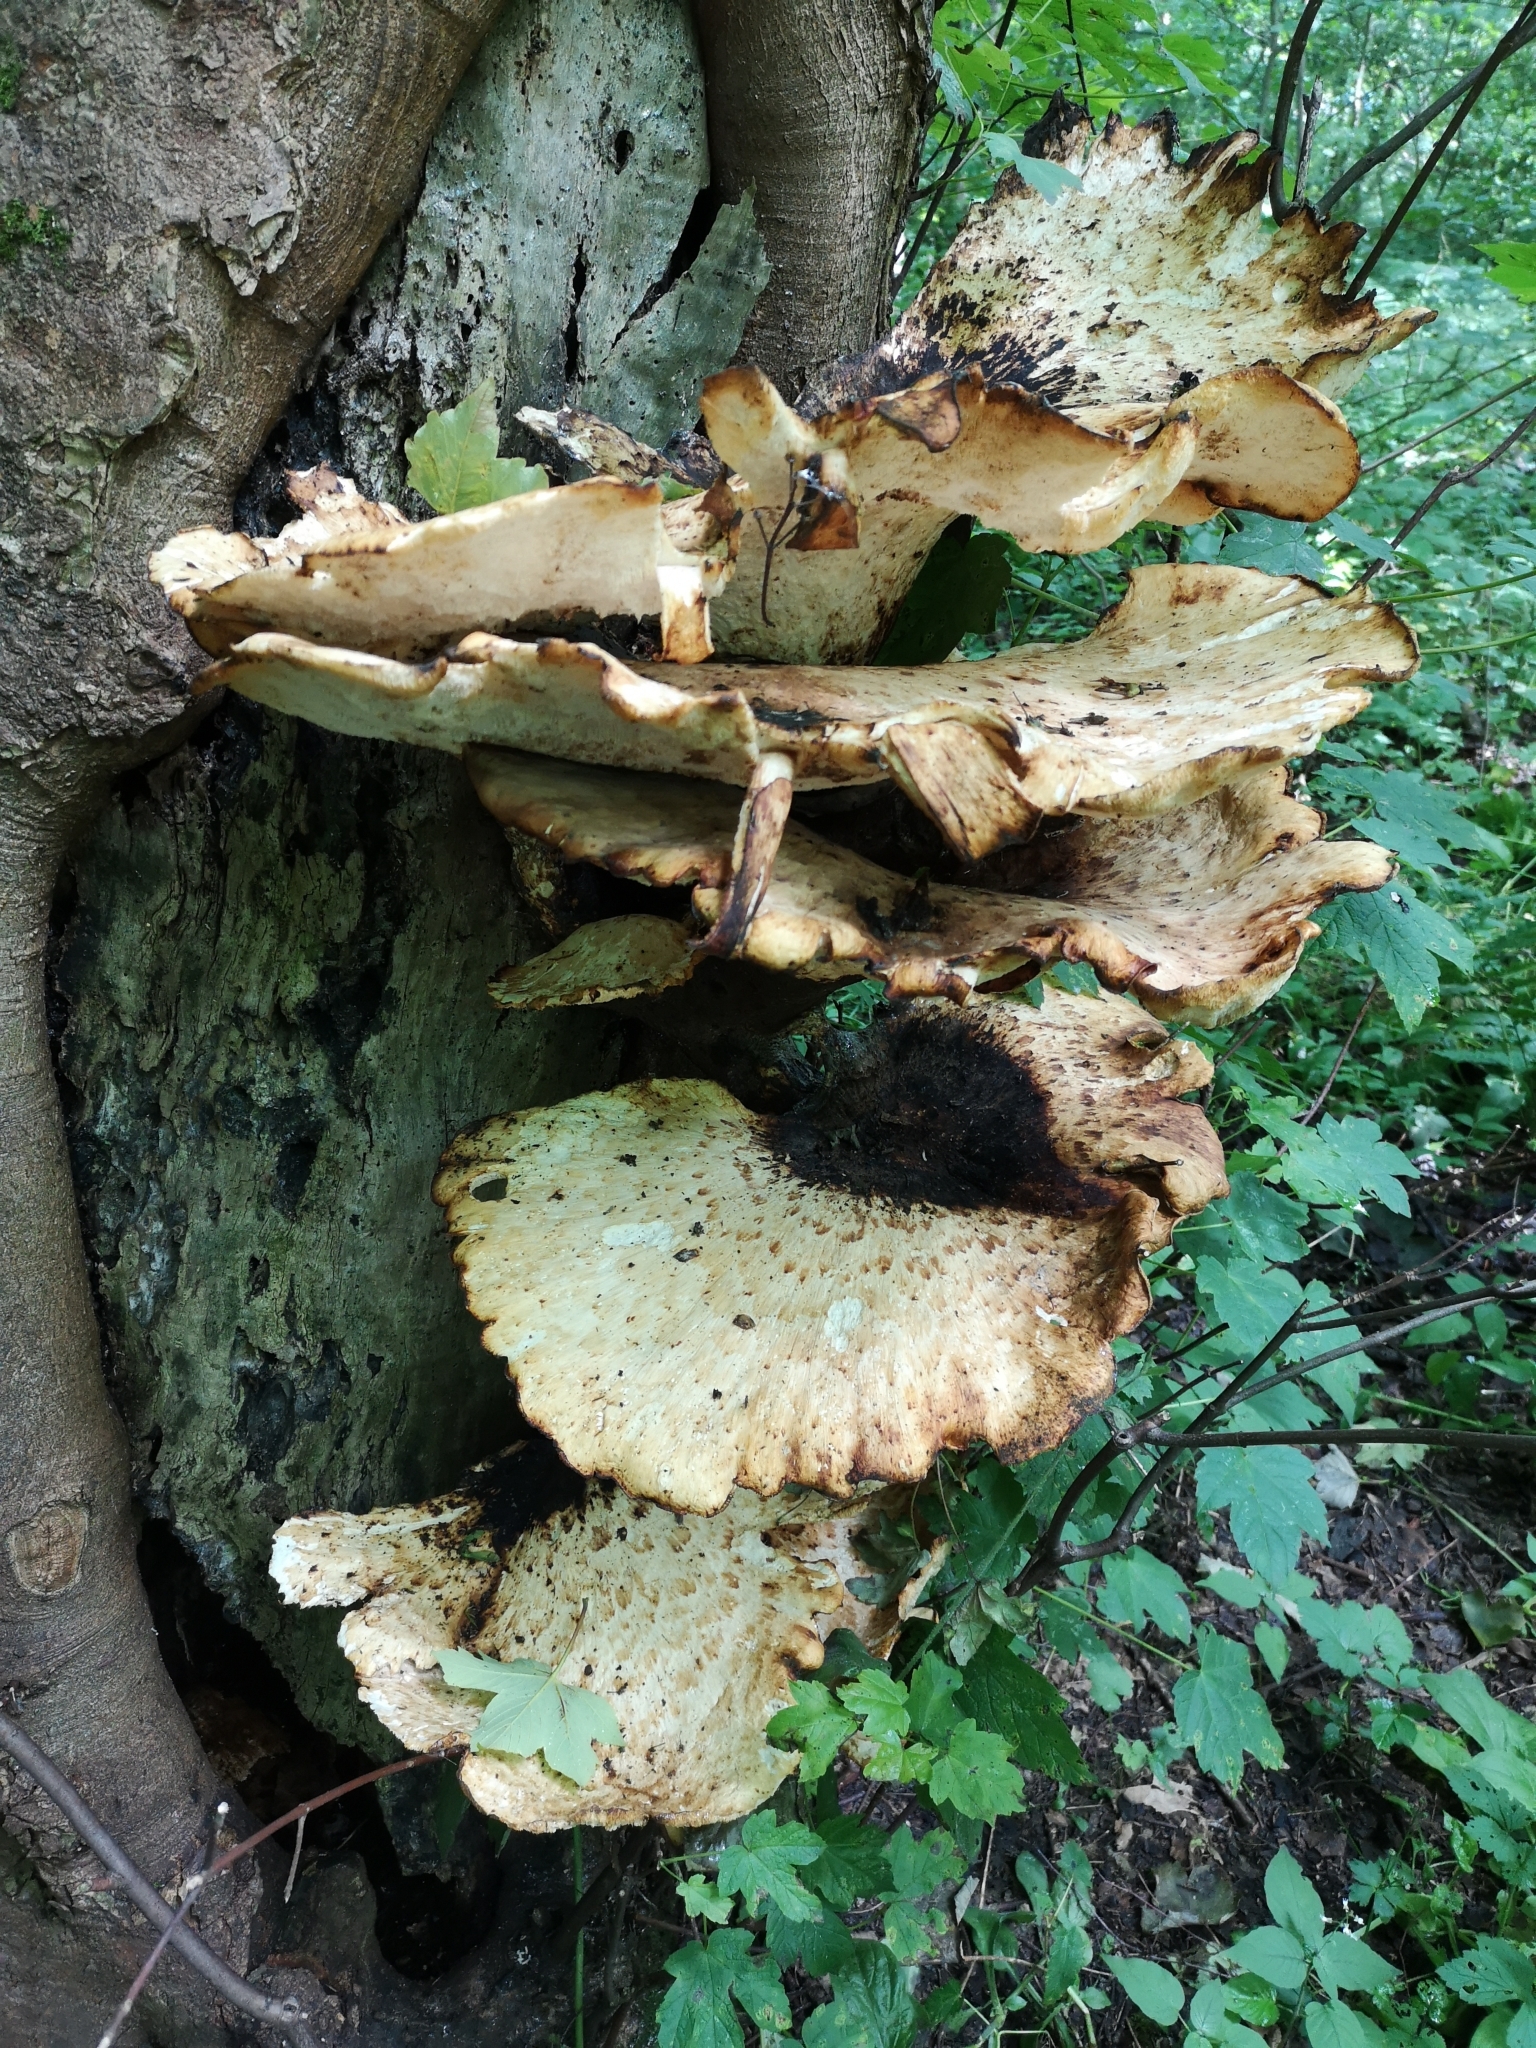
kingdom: Fungi
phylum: Basidiomycota
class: Agaricomycetes
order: Polyporales
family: Polyporaceae
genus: Cerioporus
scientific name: Cerioporus squamosus
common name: Dryad's saddle
